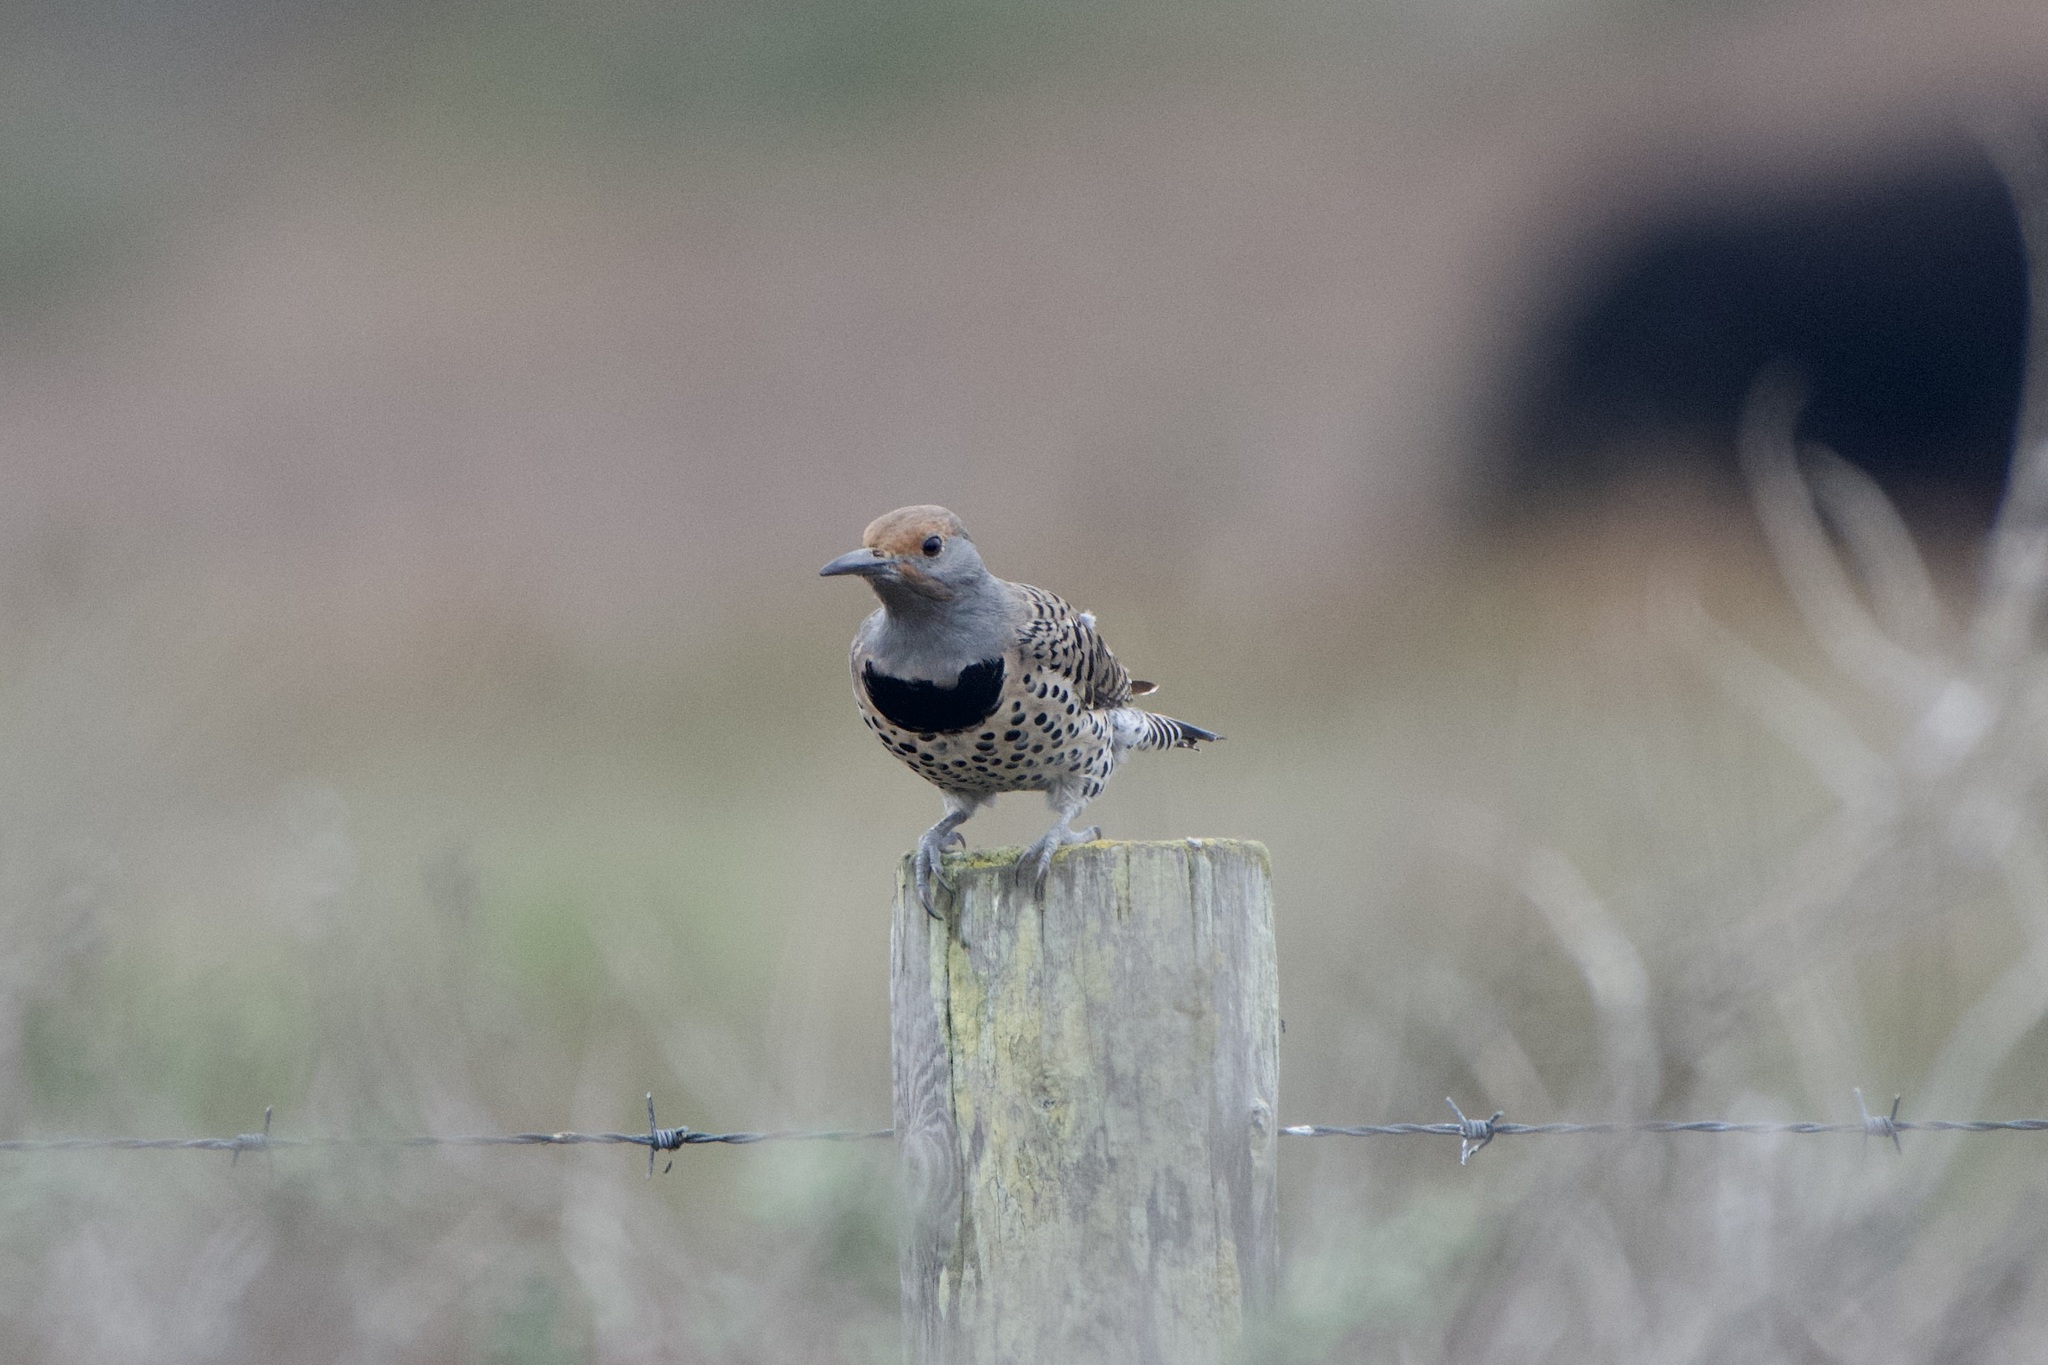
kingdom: Animalia
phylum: Chordata
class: Aves
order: Piciformes
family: Picidae
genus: Colaptes
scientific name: Colaptes auratus
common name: Northern flicker
